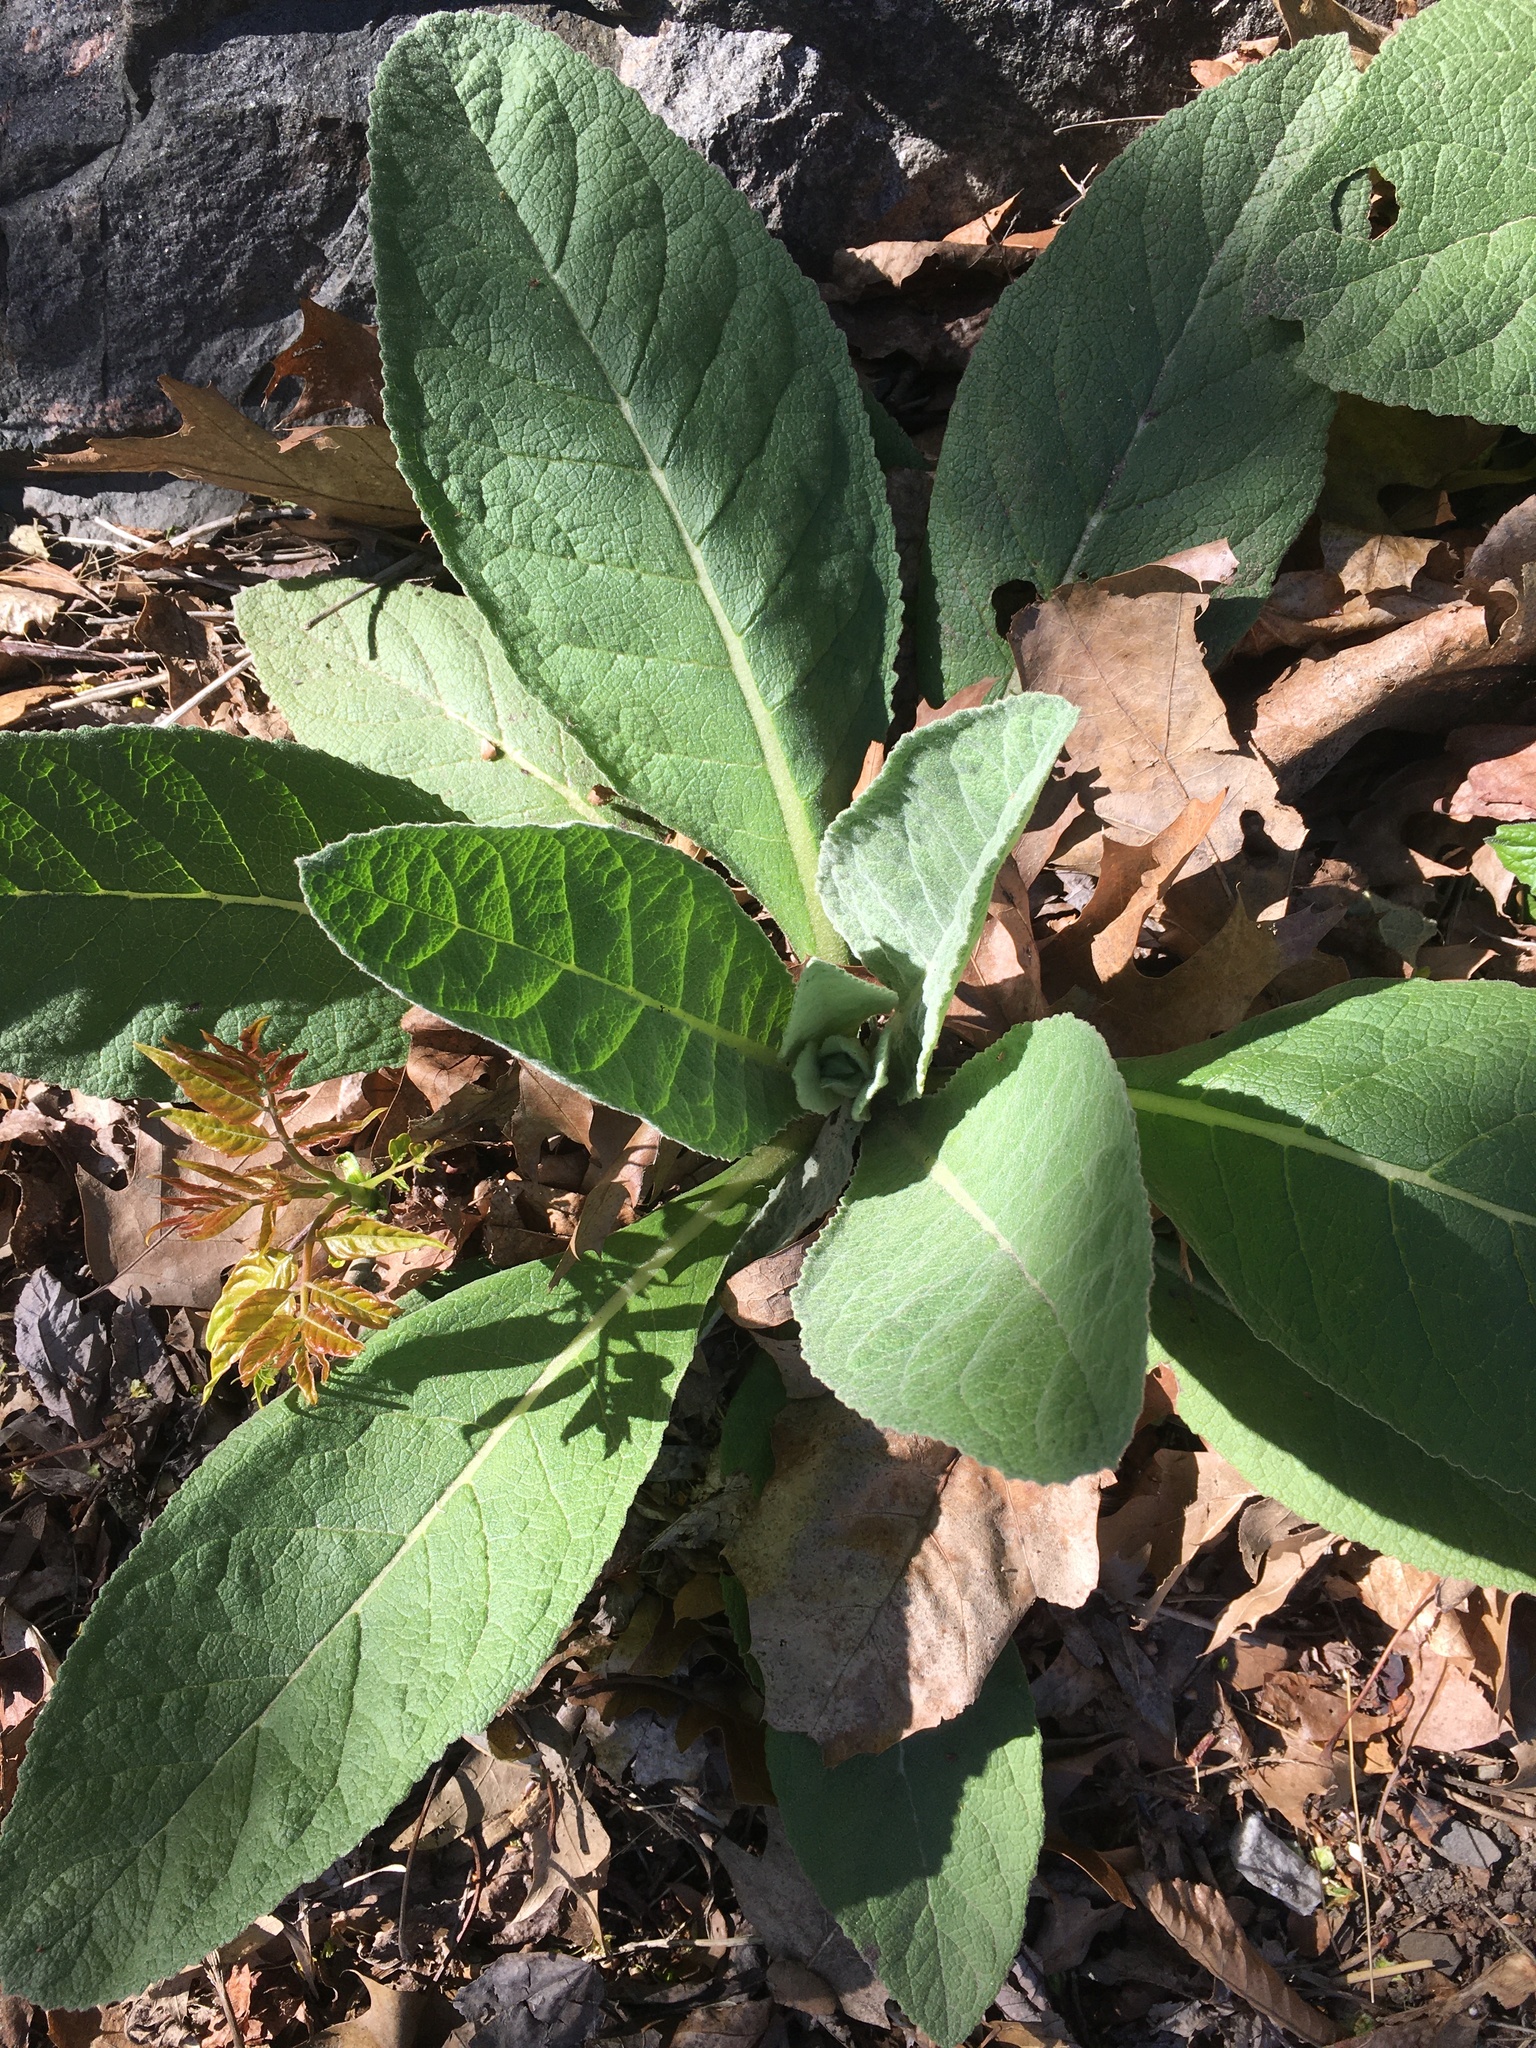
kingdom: Plantae
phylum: Tracheophyta
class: Magnoliopsida
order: Lamiales
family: Scrophulariaceae
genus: Verbascum
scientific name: Verbascum thapsus
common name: Common mullein
